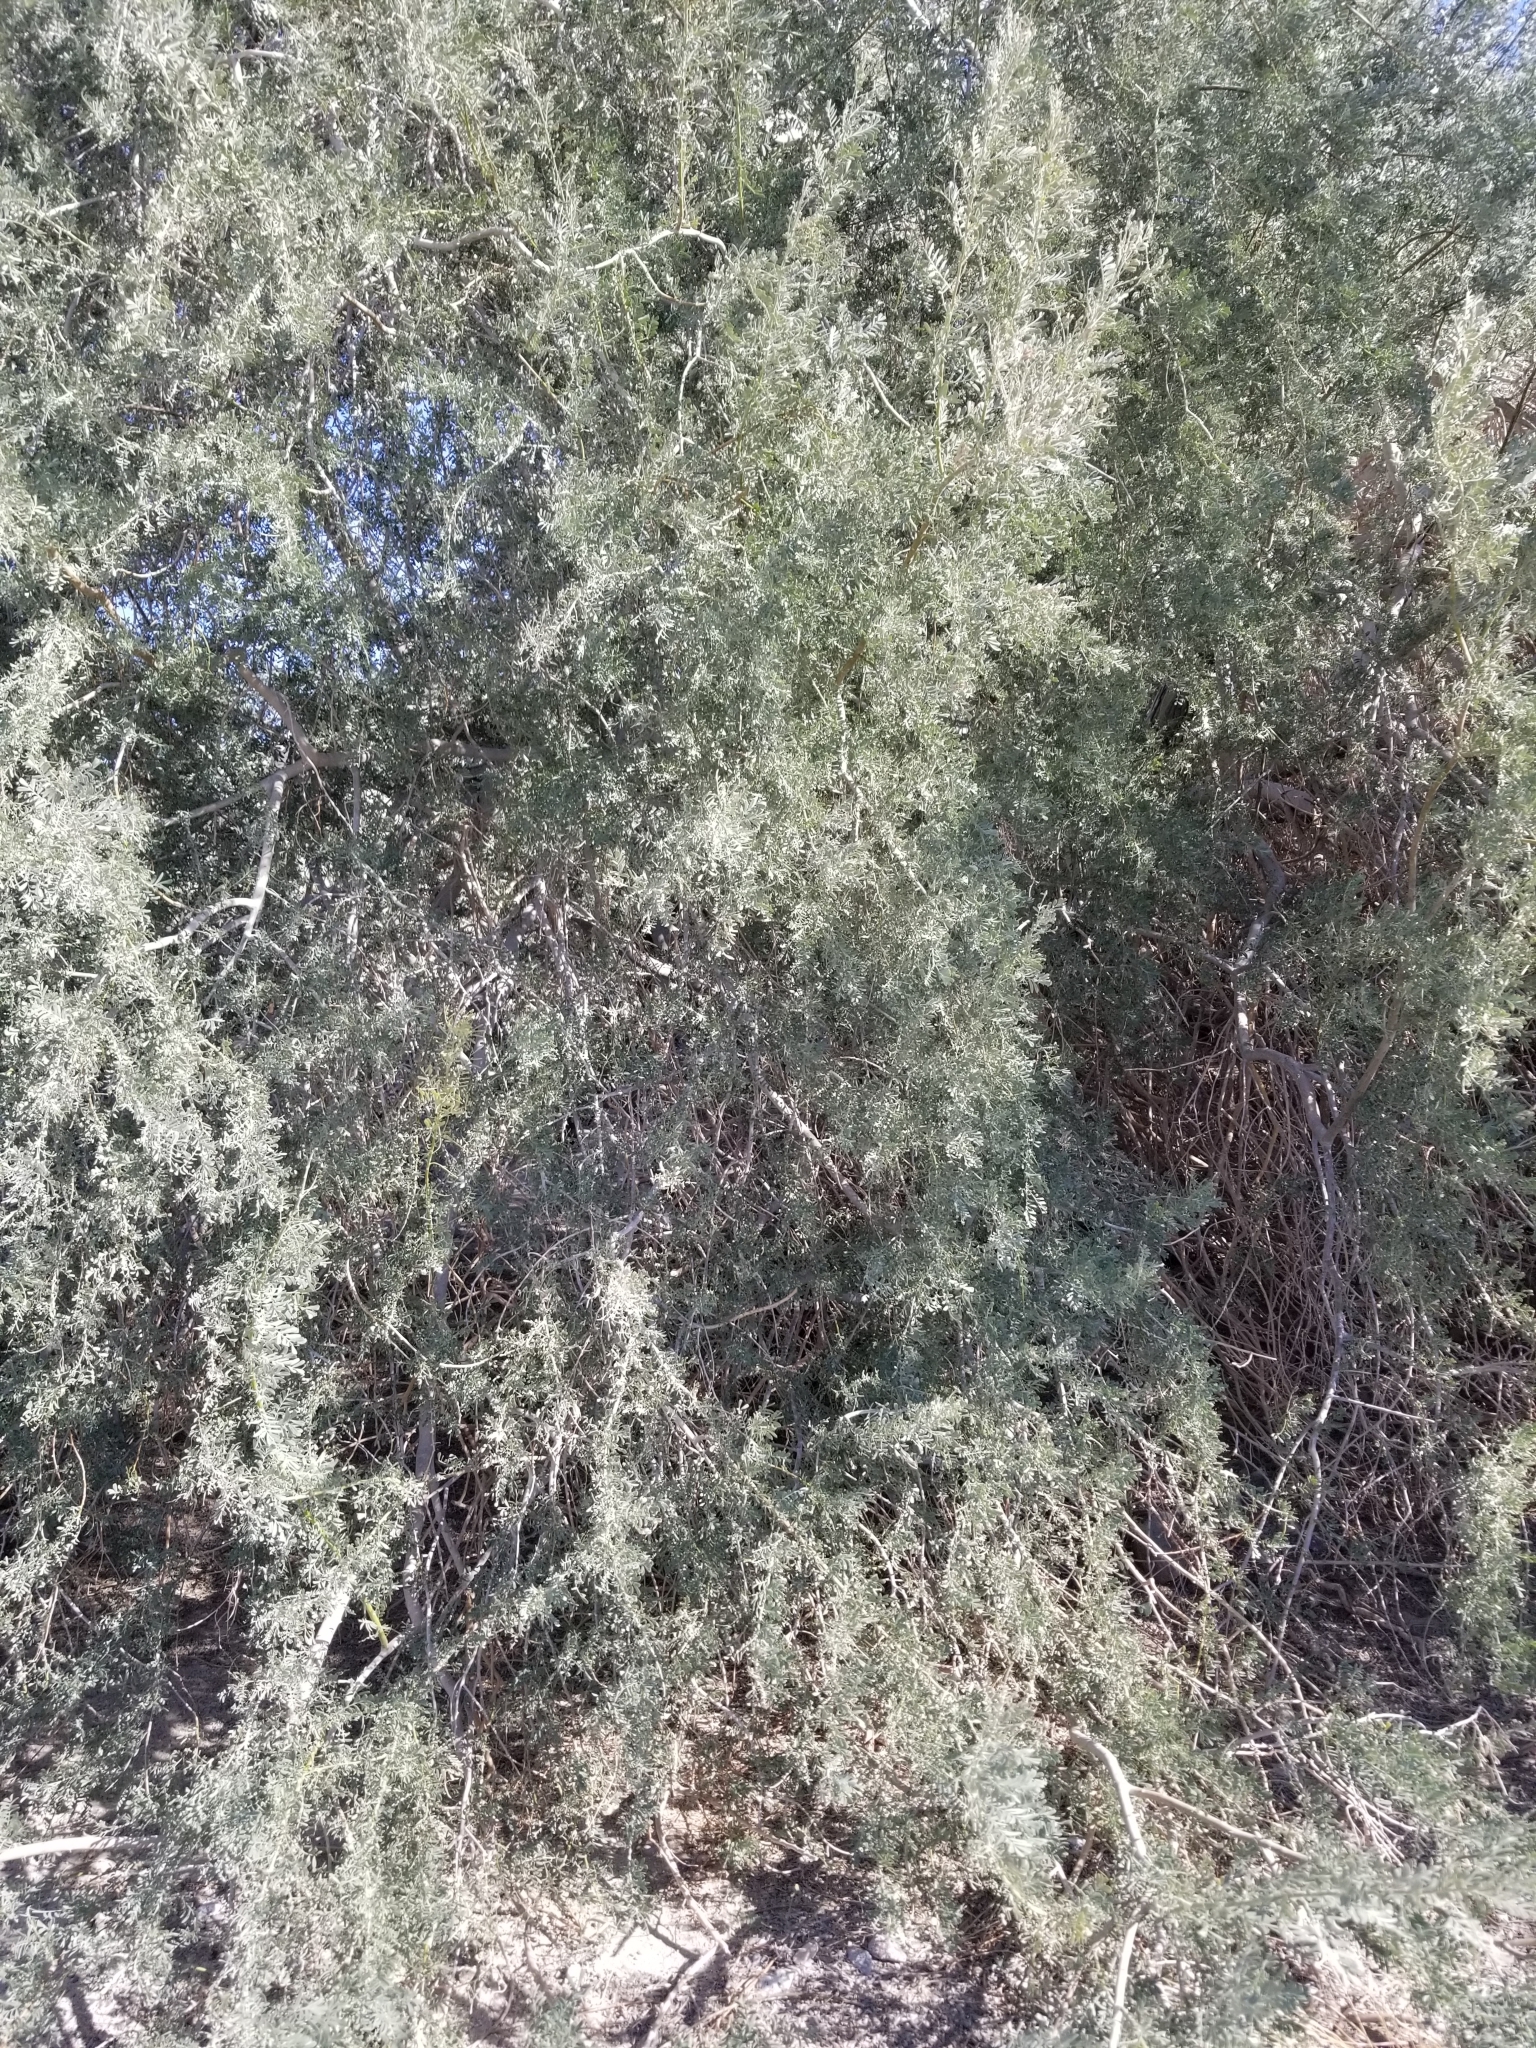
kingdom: Plantae
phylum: Tracheophyta
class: Magnoliopsida
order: Fabales
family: Fabaceae
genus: Olneya
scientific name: Olneya tesota
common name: Desert ironwood
